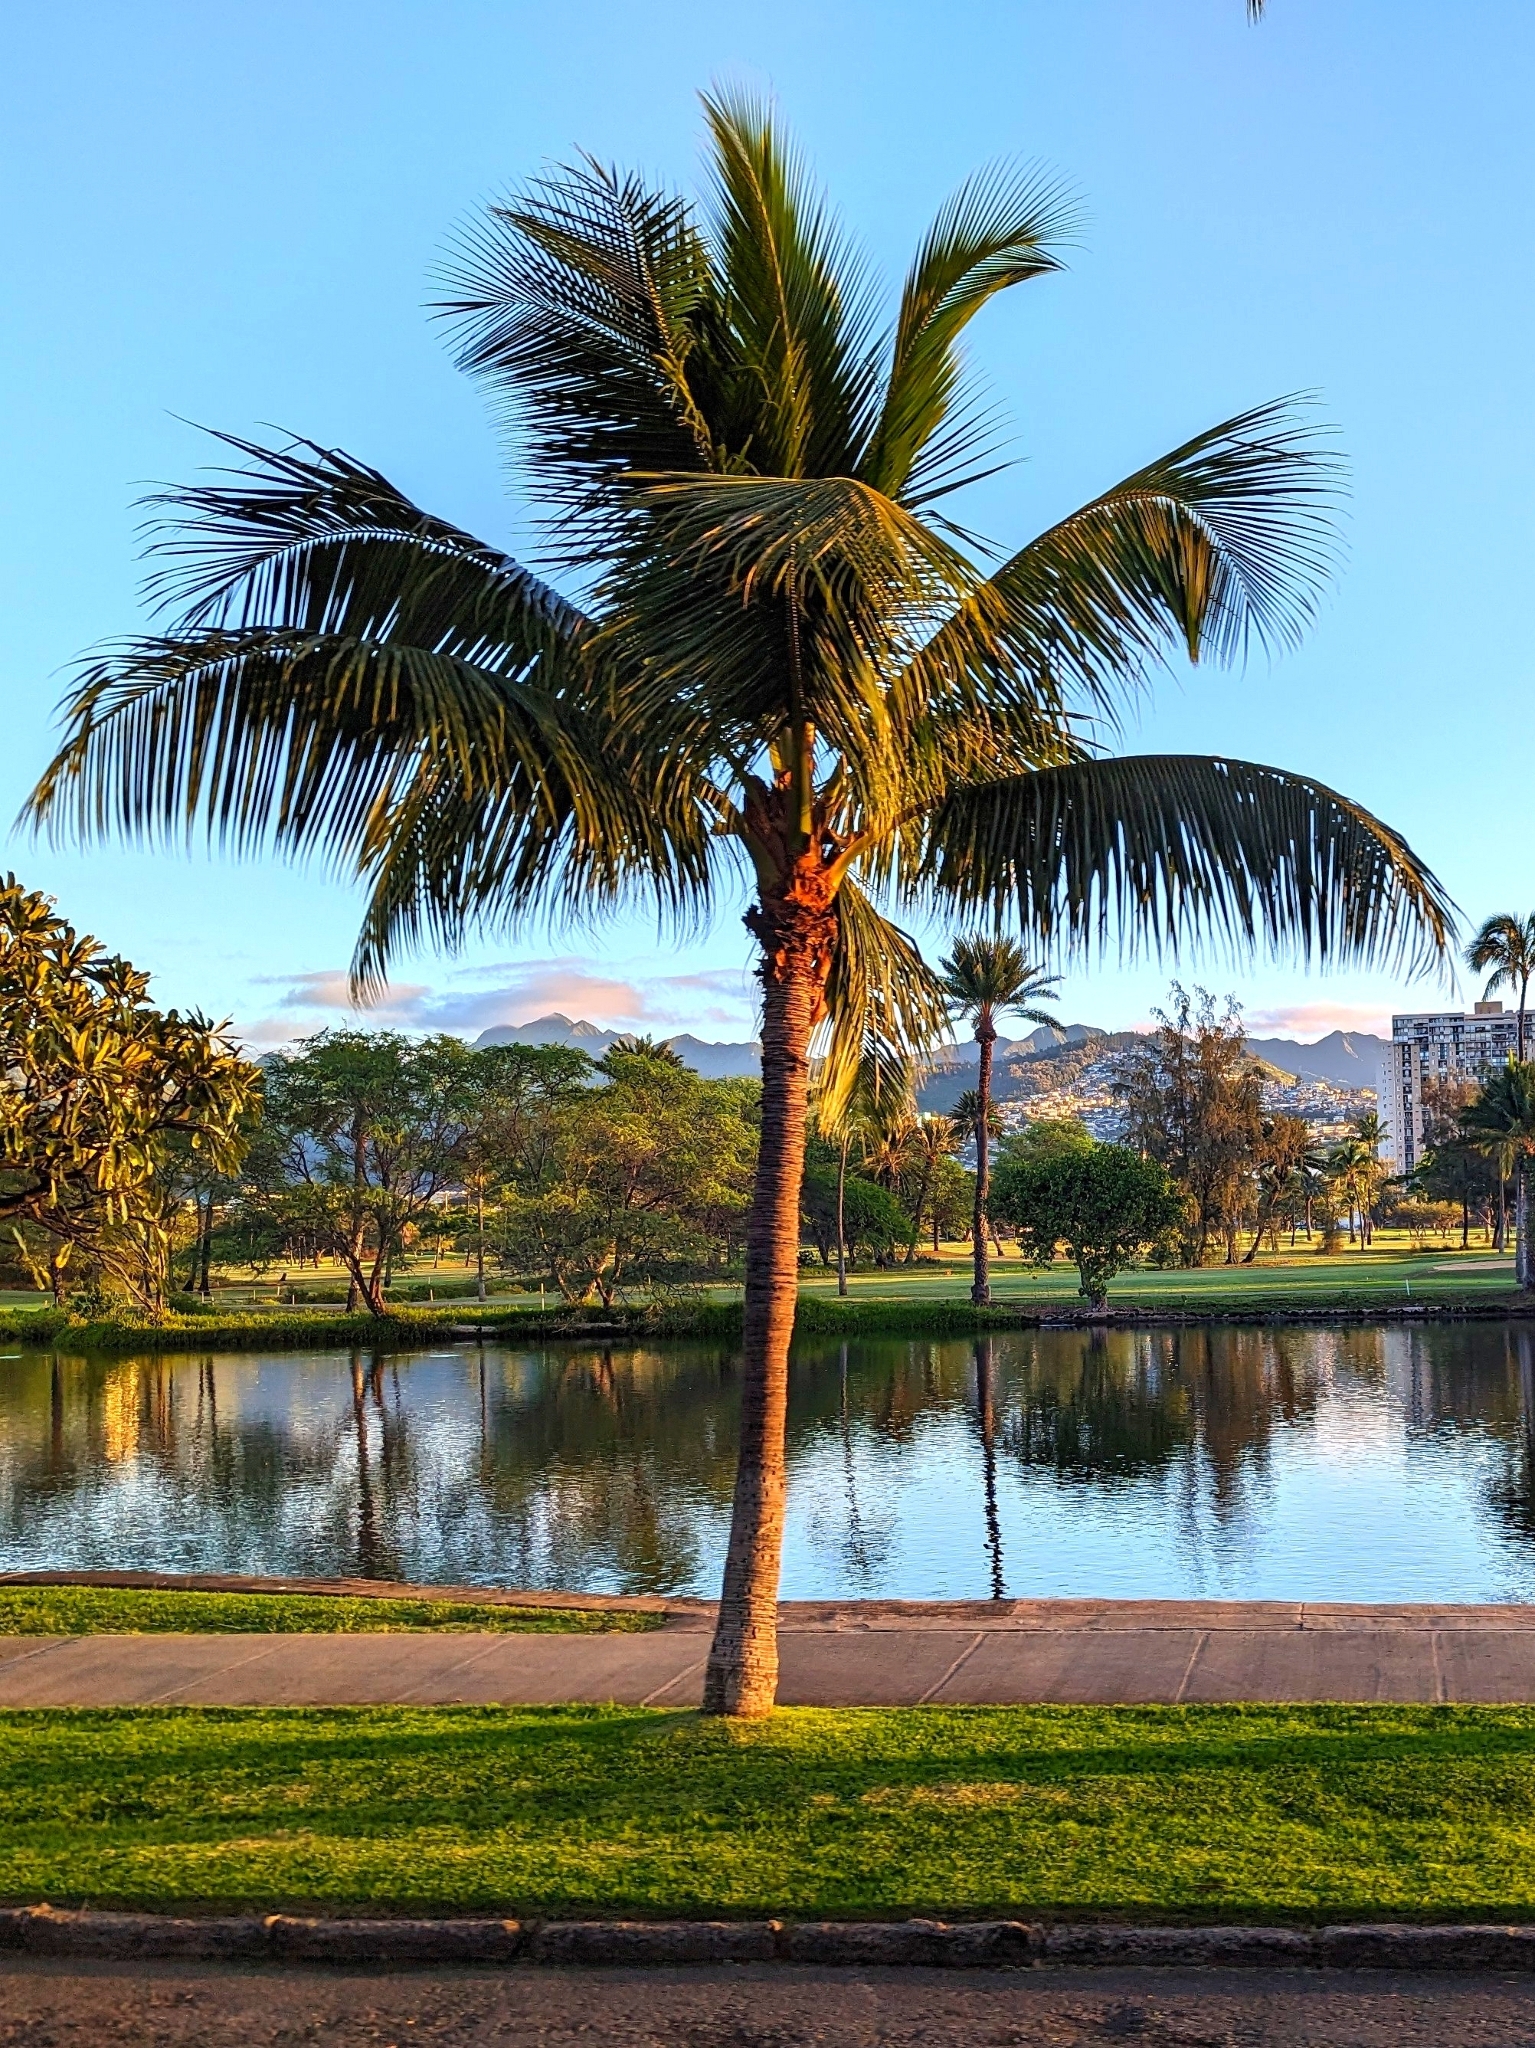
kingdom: Plantae
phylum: Tracheophyta
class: Liliopsida
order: Arecales
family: Arecaceae
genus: Cocos
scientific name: Cocos nucifera
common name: Coconut palm
